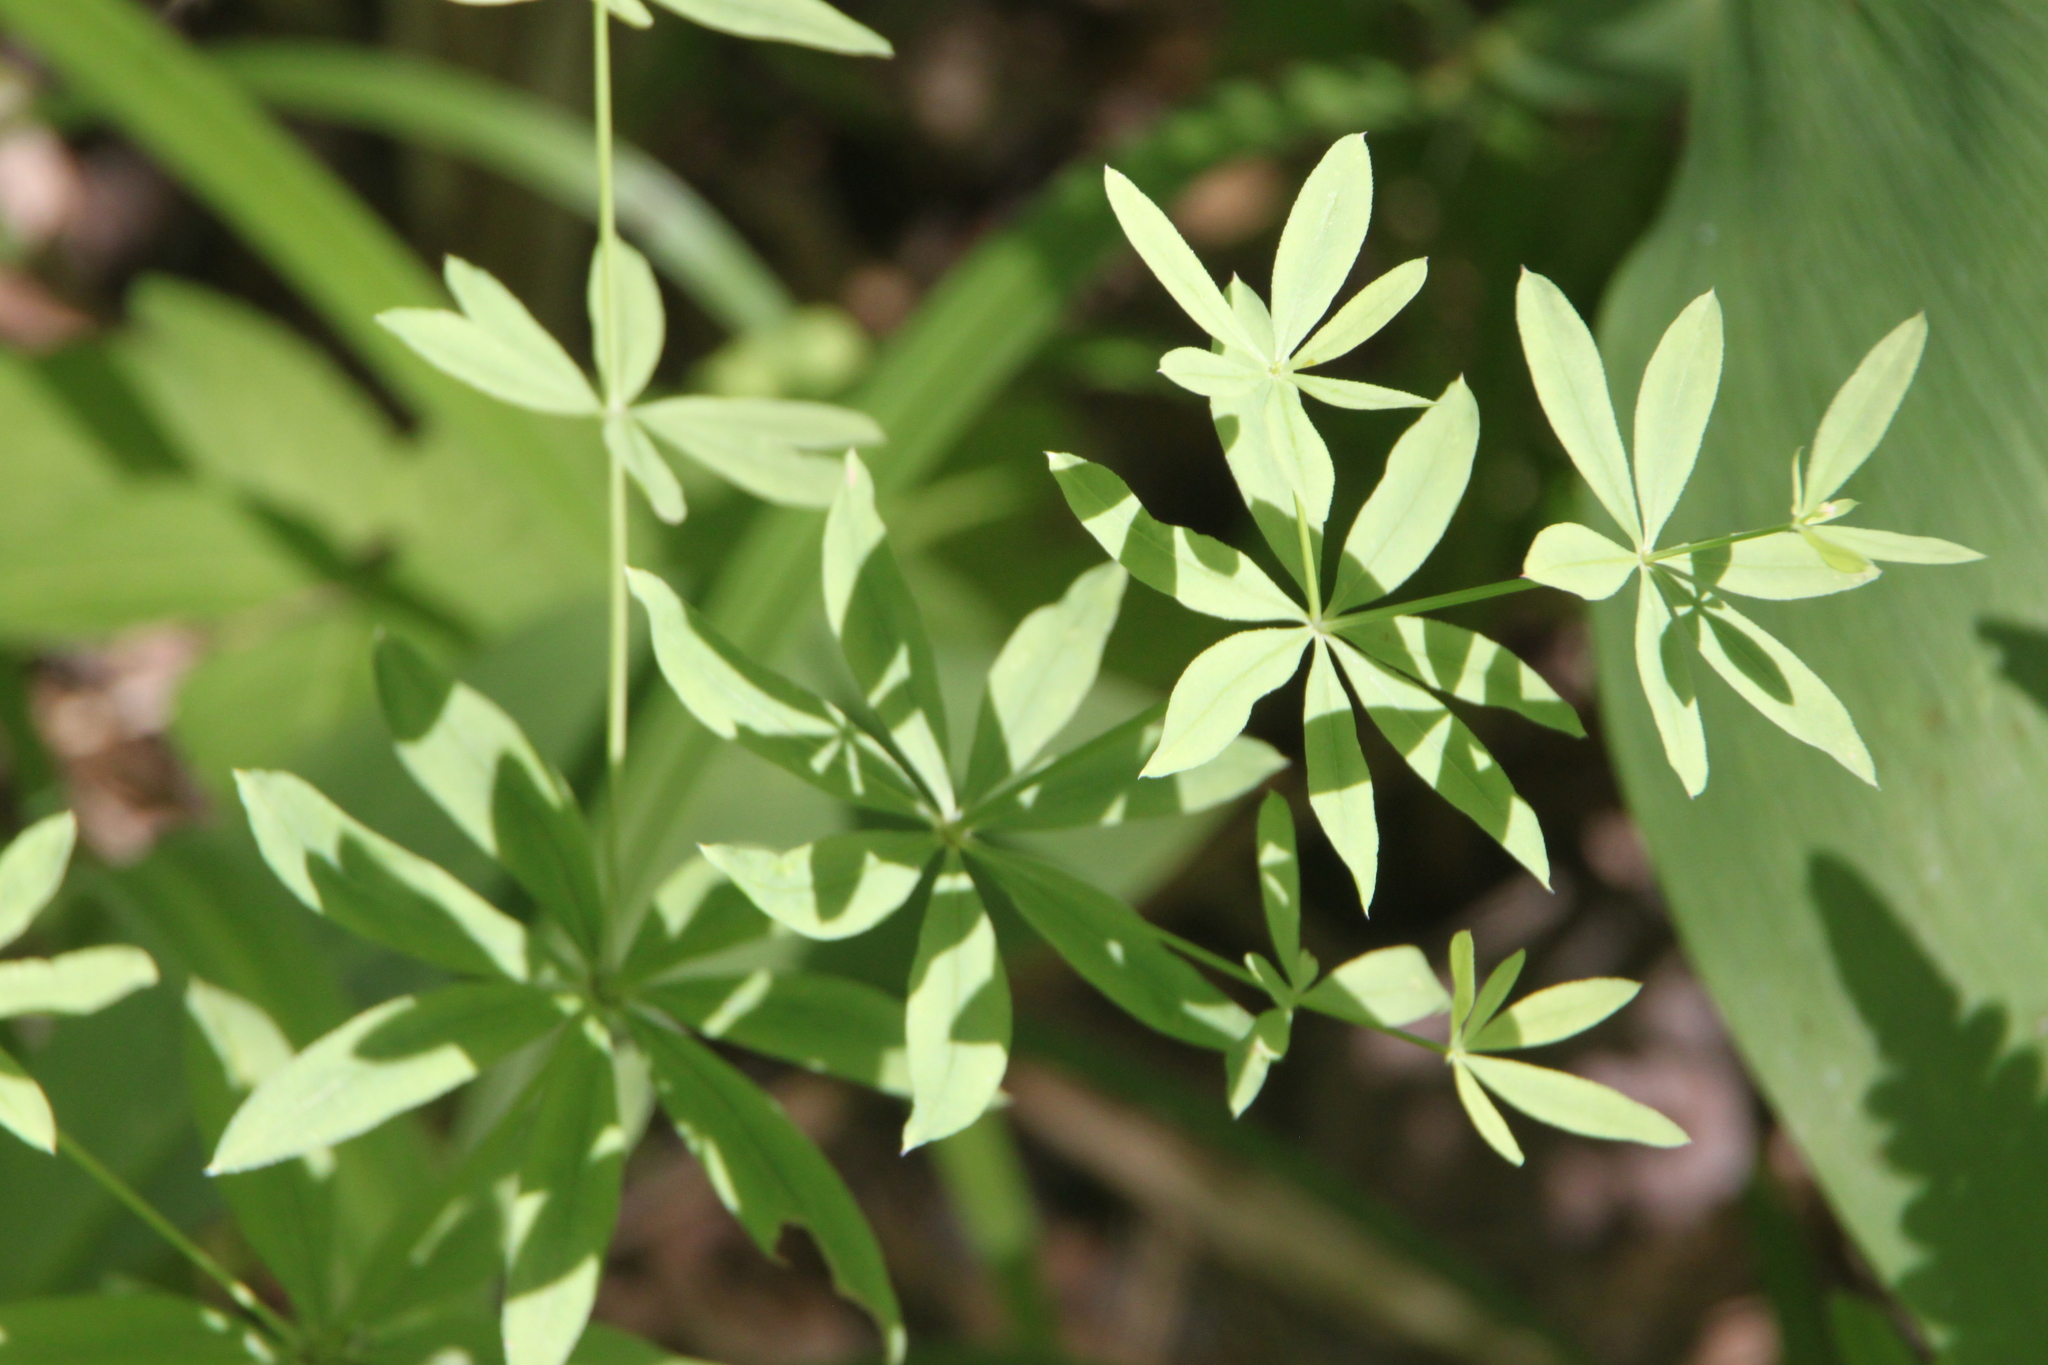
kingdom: Plantae
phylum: Tracheophyta
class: Magnoliopsida
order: Gentianales
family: Rubiaceae
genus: Galium
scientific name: Galium intermedium
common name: Bedstraw
